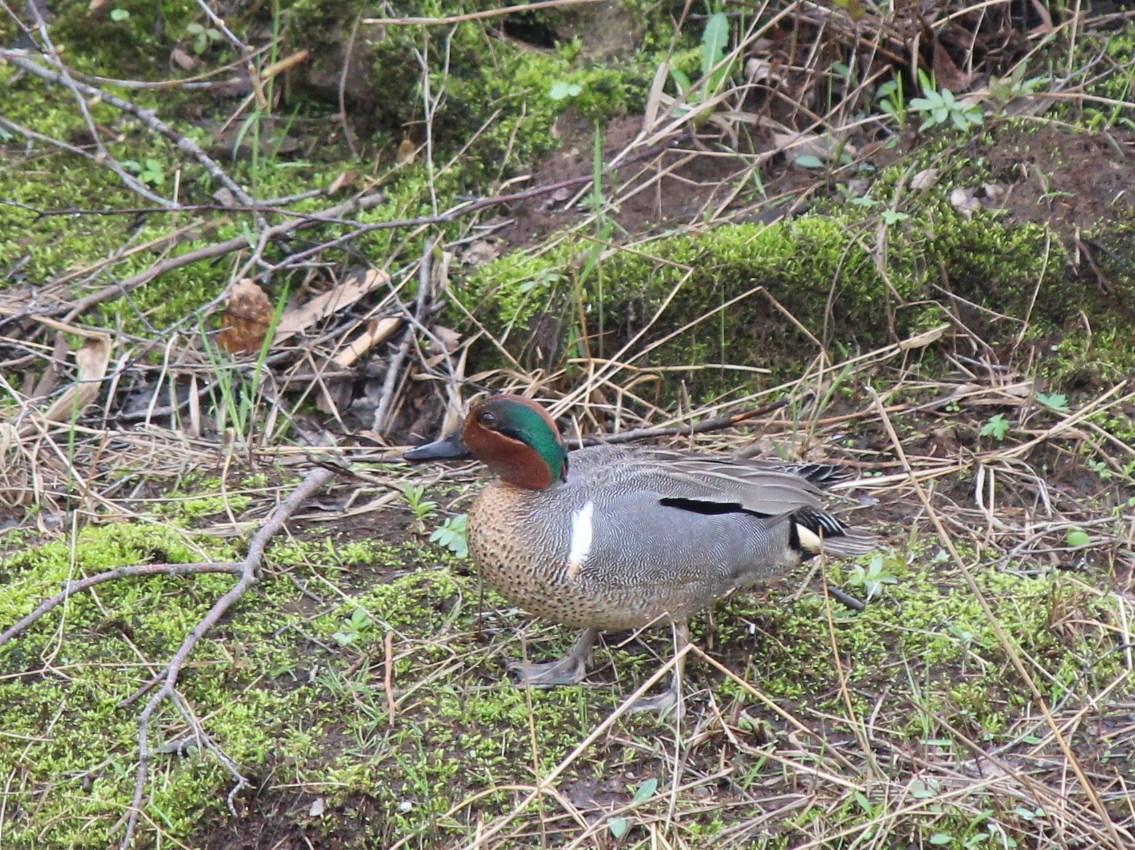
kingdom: Animalia
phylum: Chordata
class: Aves
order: Anseriformes
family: Anatidae
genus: Anas
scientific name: Anas crecca
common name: Eurasian teal
